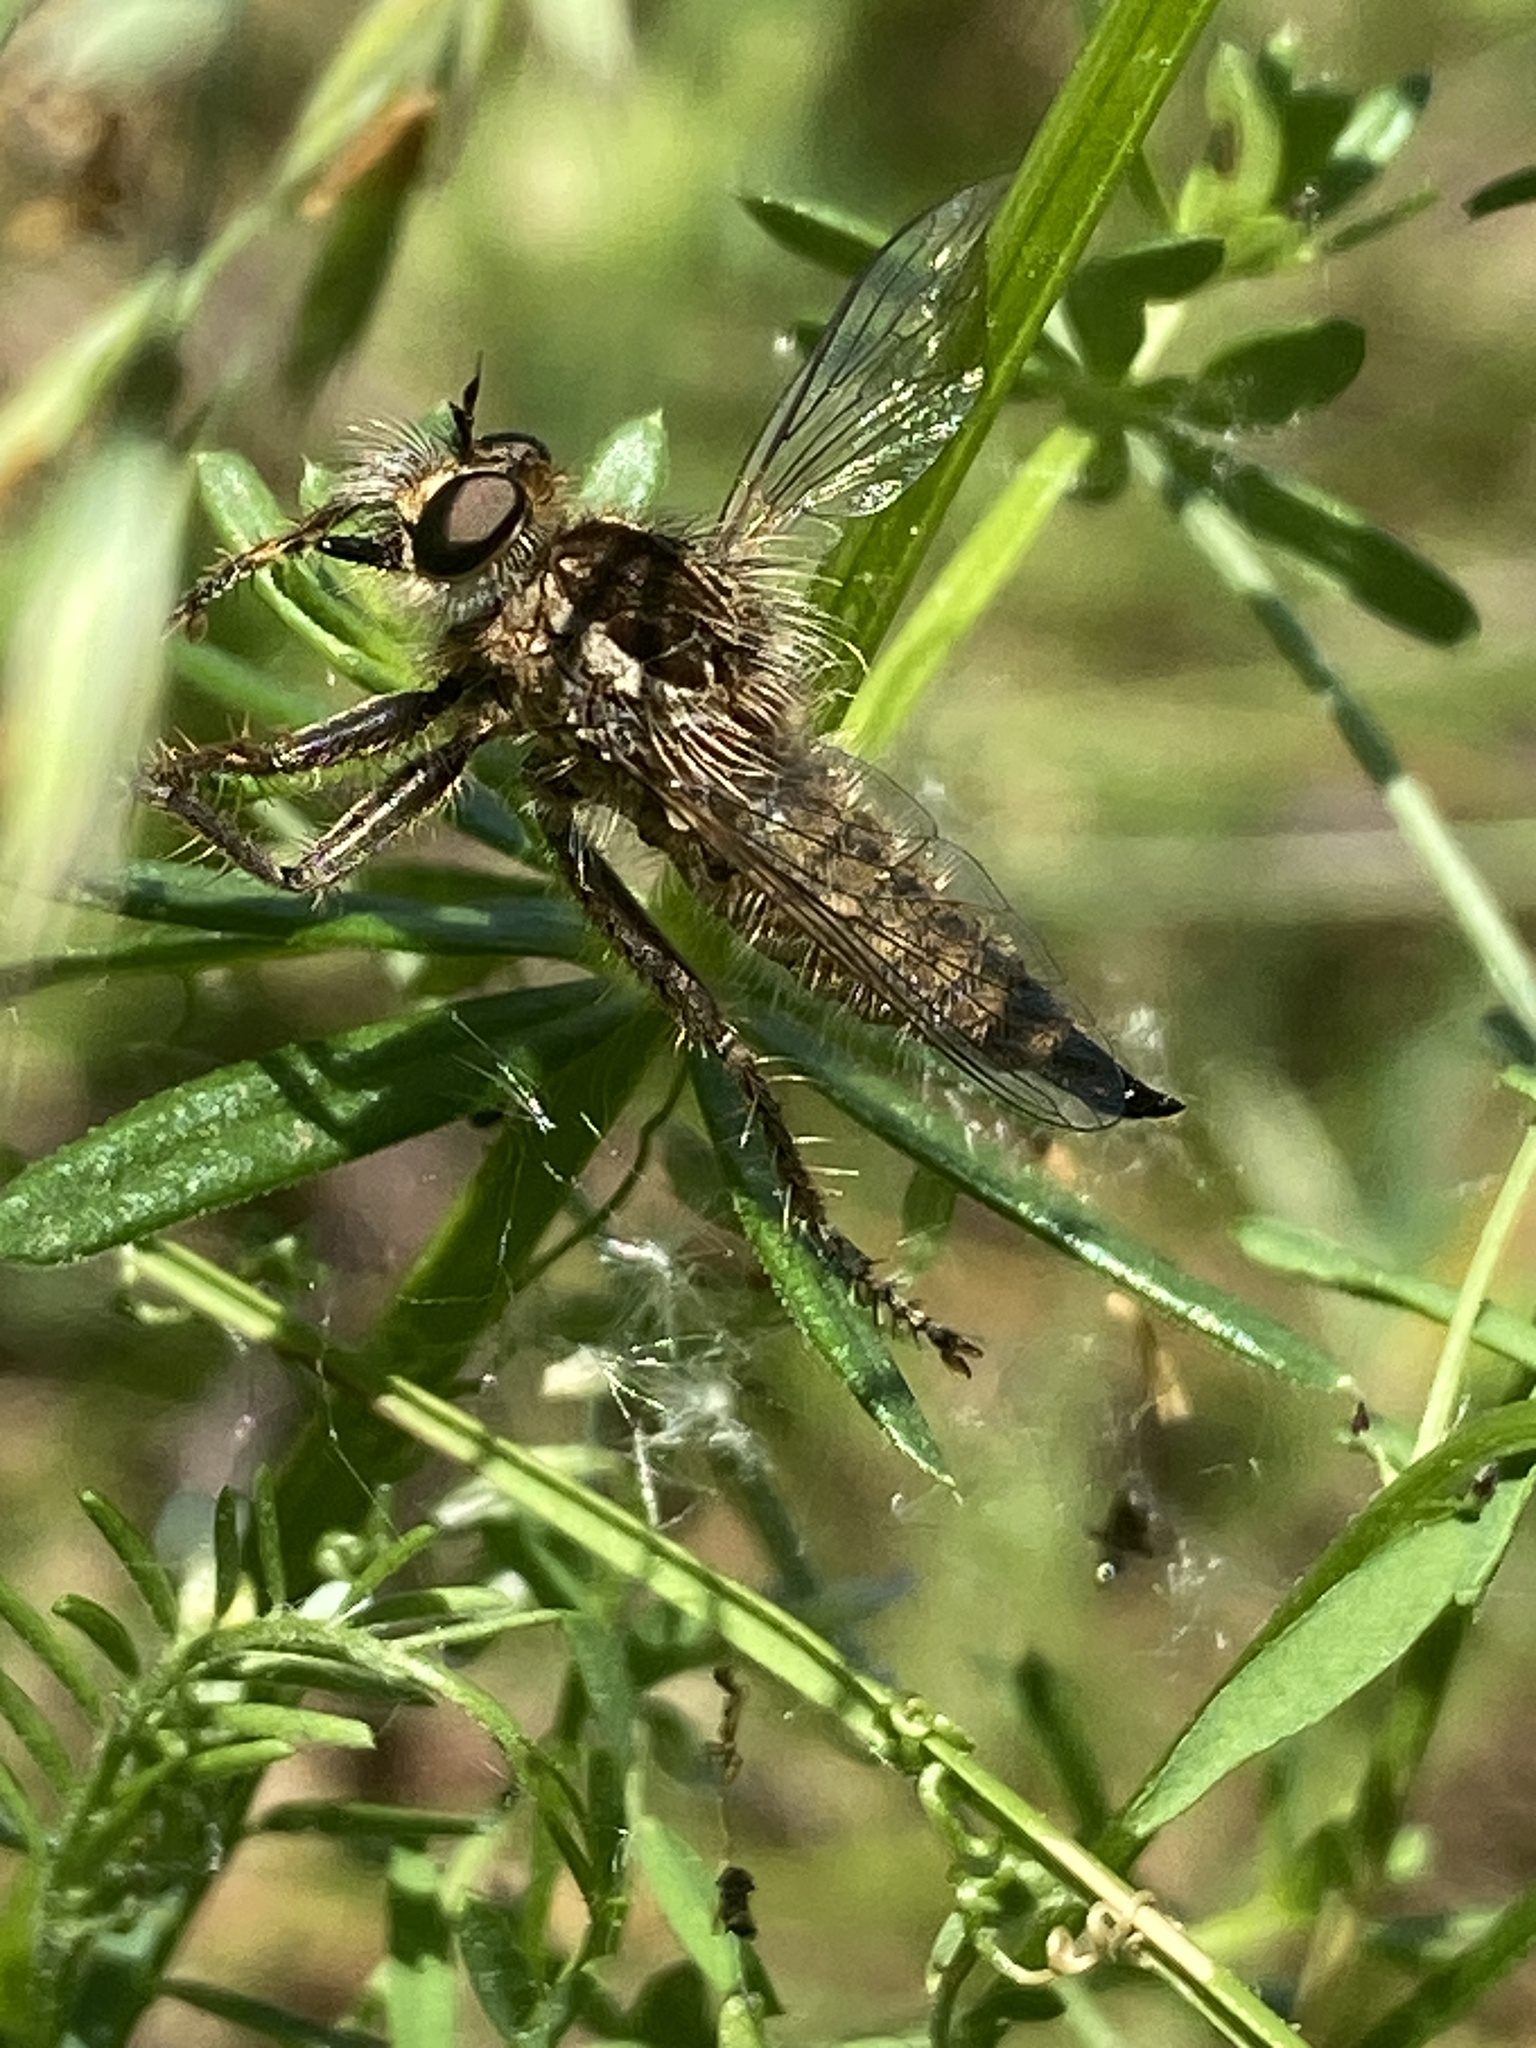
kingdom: Animalia
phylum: Arthropoda
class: Insecta
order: Diptera
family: Asilidae
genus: Dysmachus
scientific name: Dysmachus trigonus
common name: Fan-bristled robberfly
